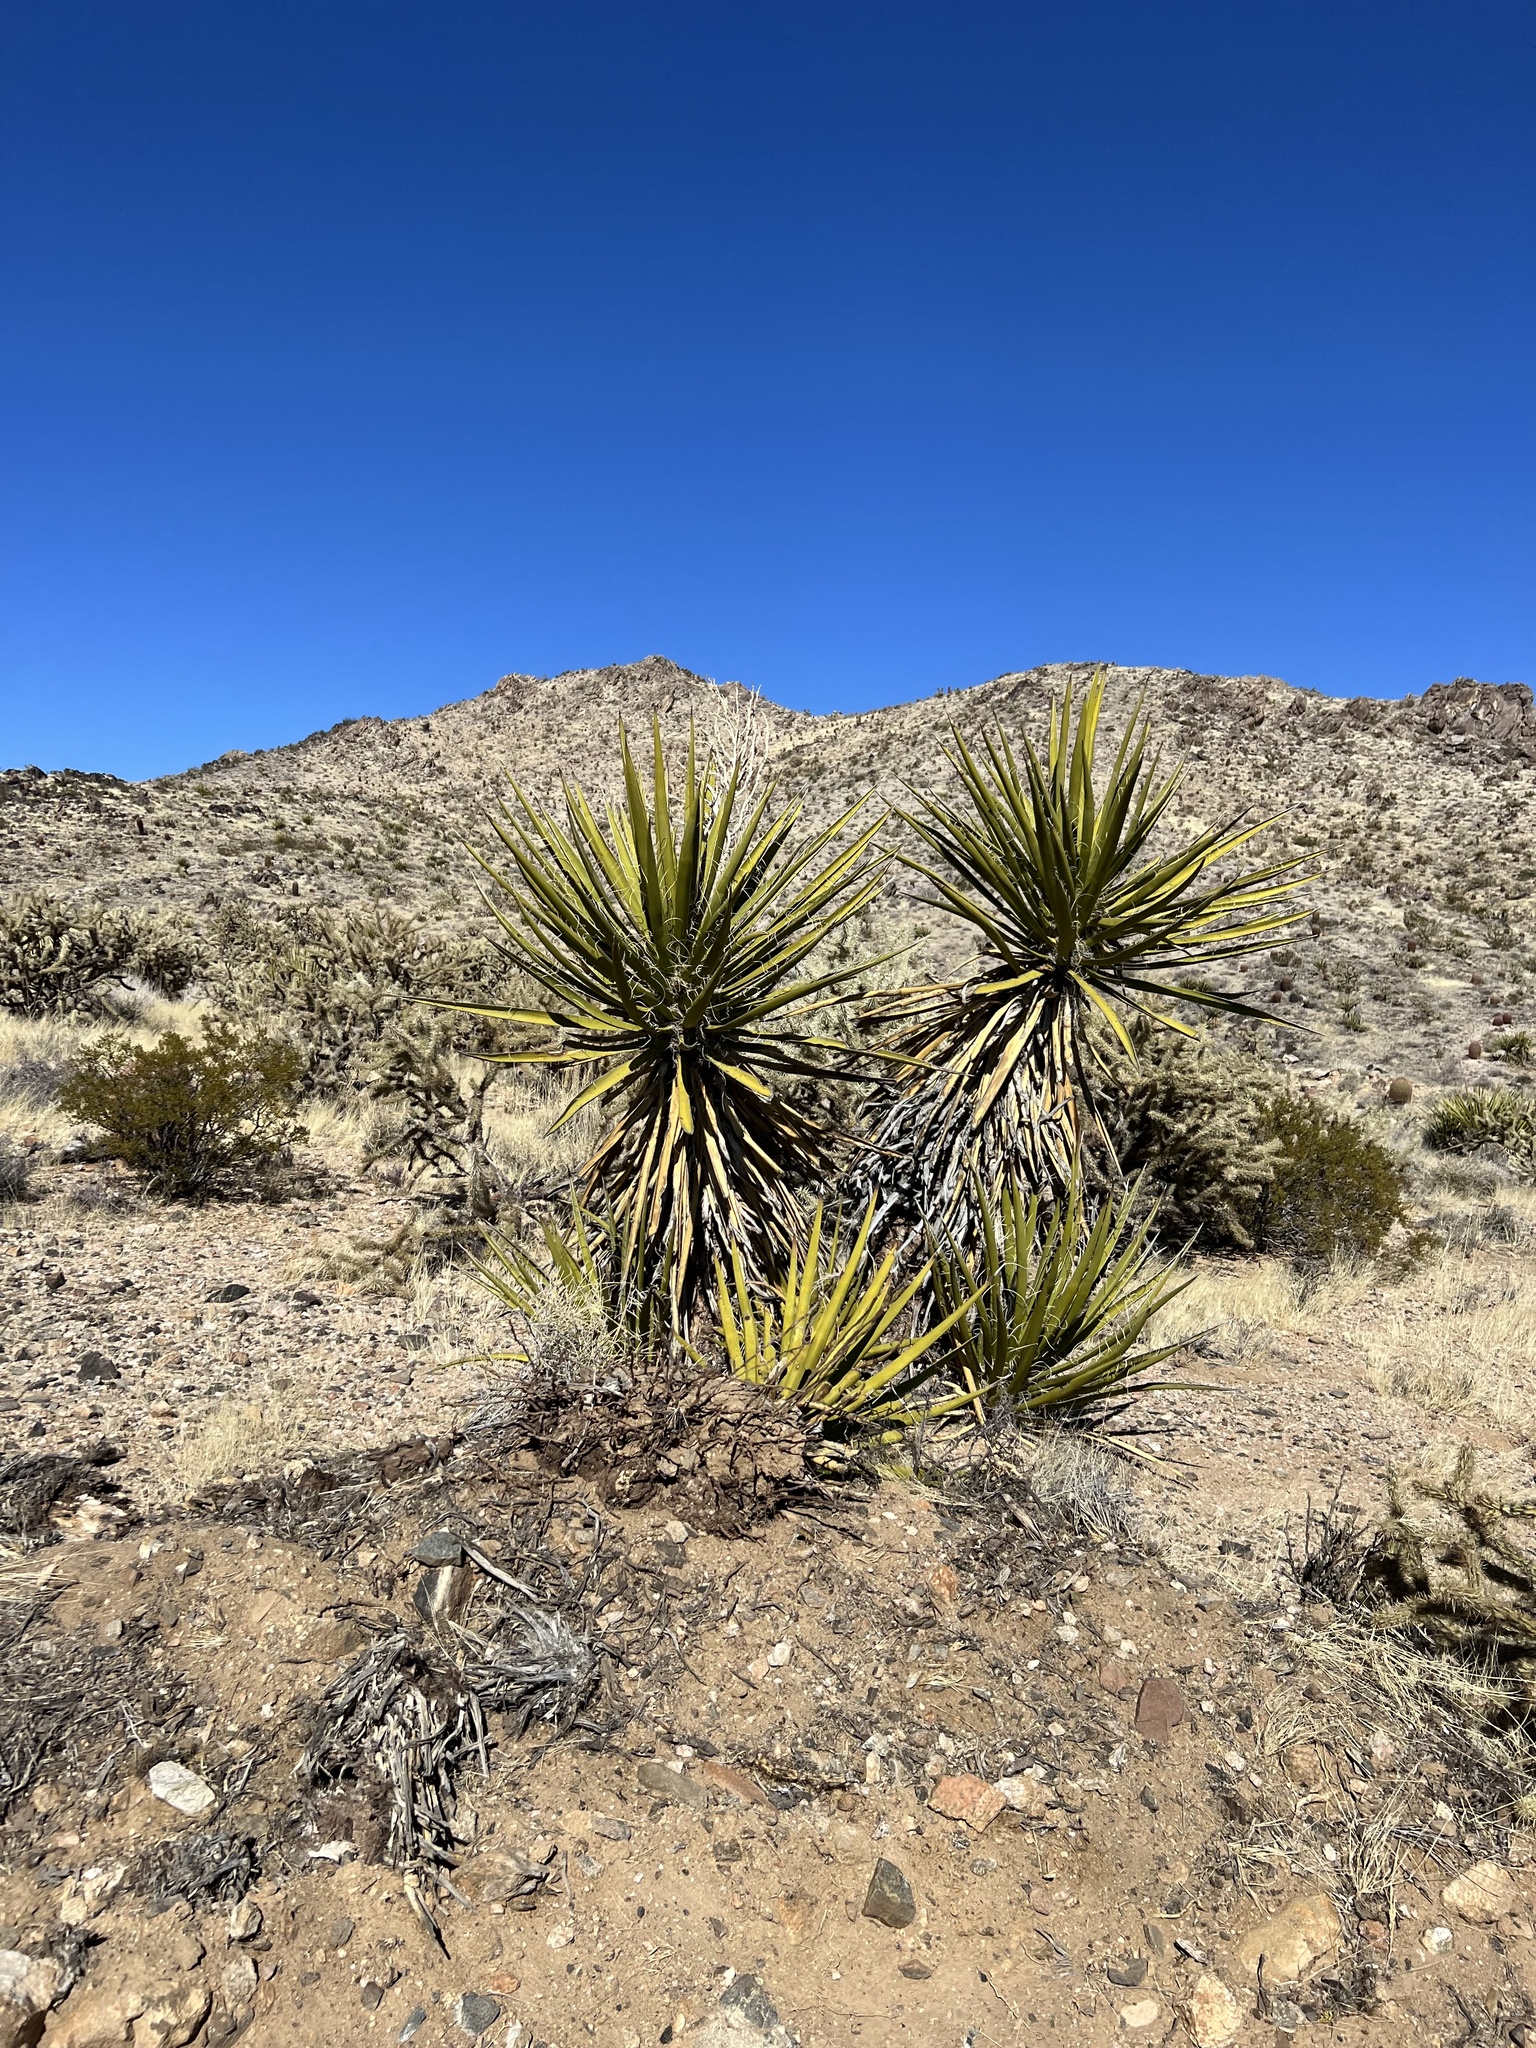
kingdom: Plantae
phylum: Tracheophyta
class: Liliopsida
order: Asparagales
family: Asparagaceae
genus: Yucca
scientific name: Yucca schidigera
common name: Mojave yucca
